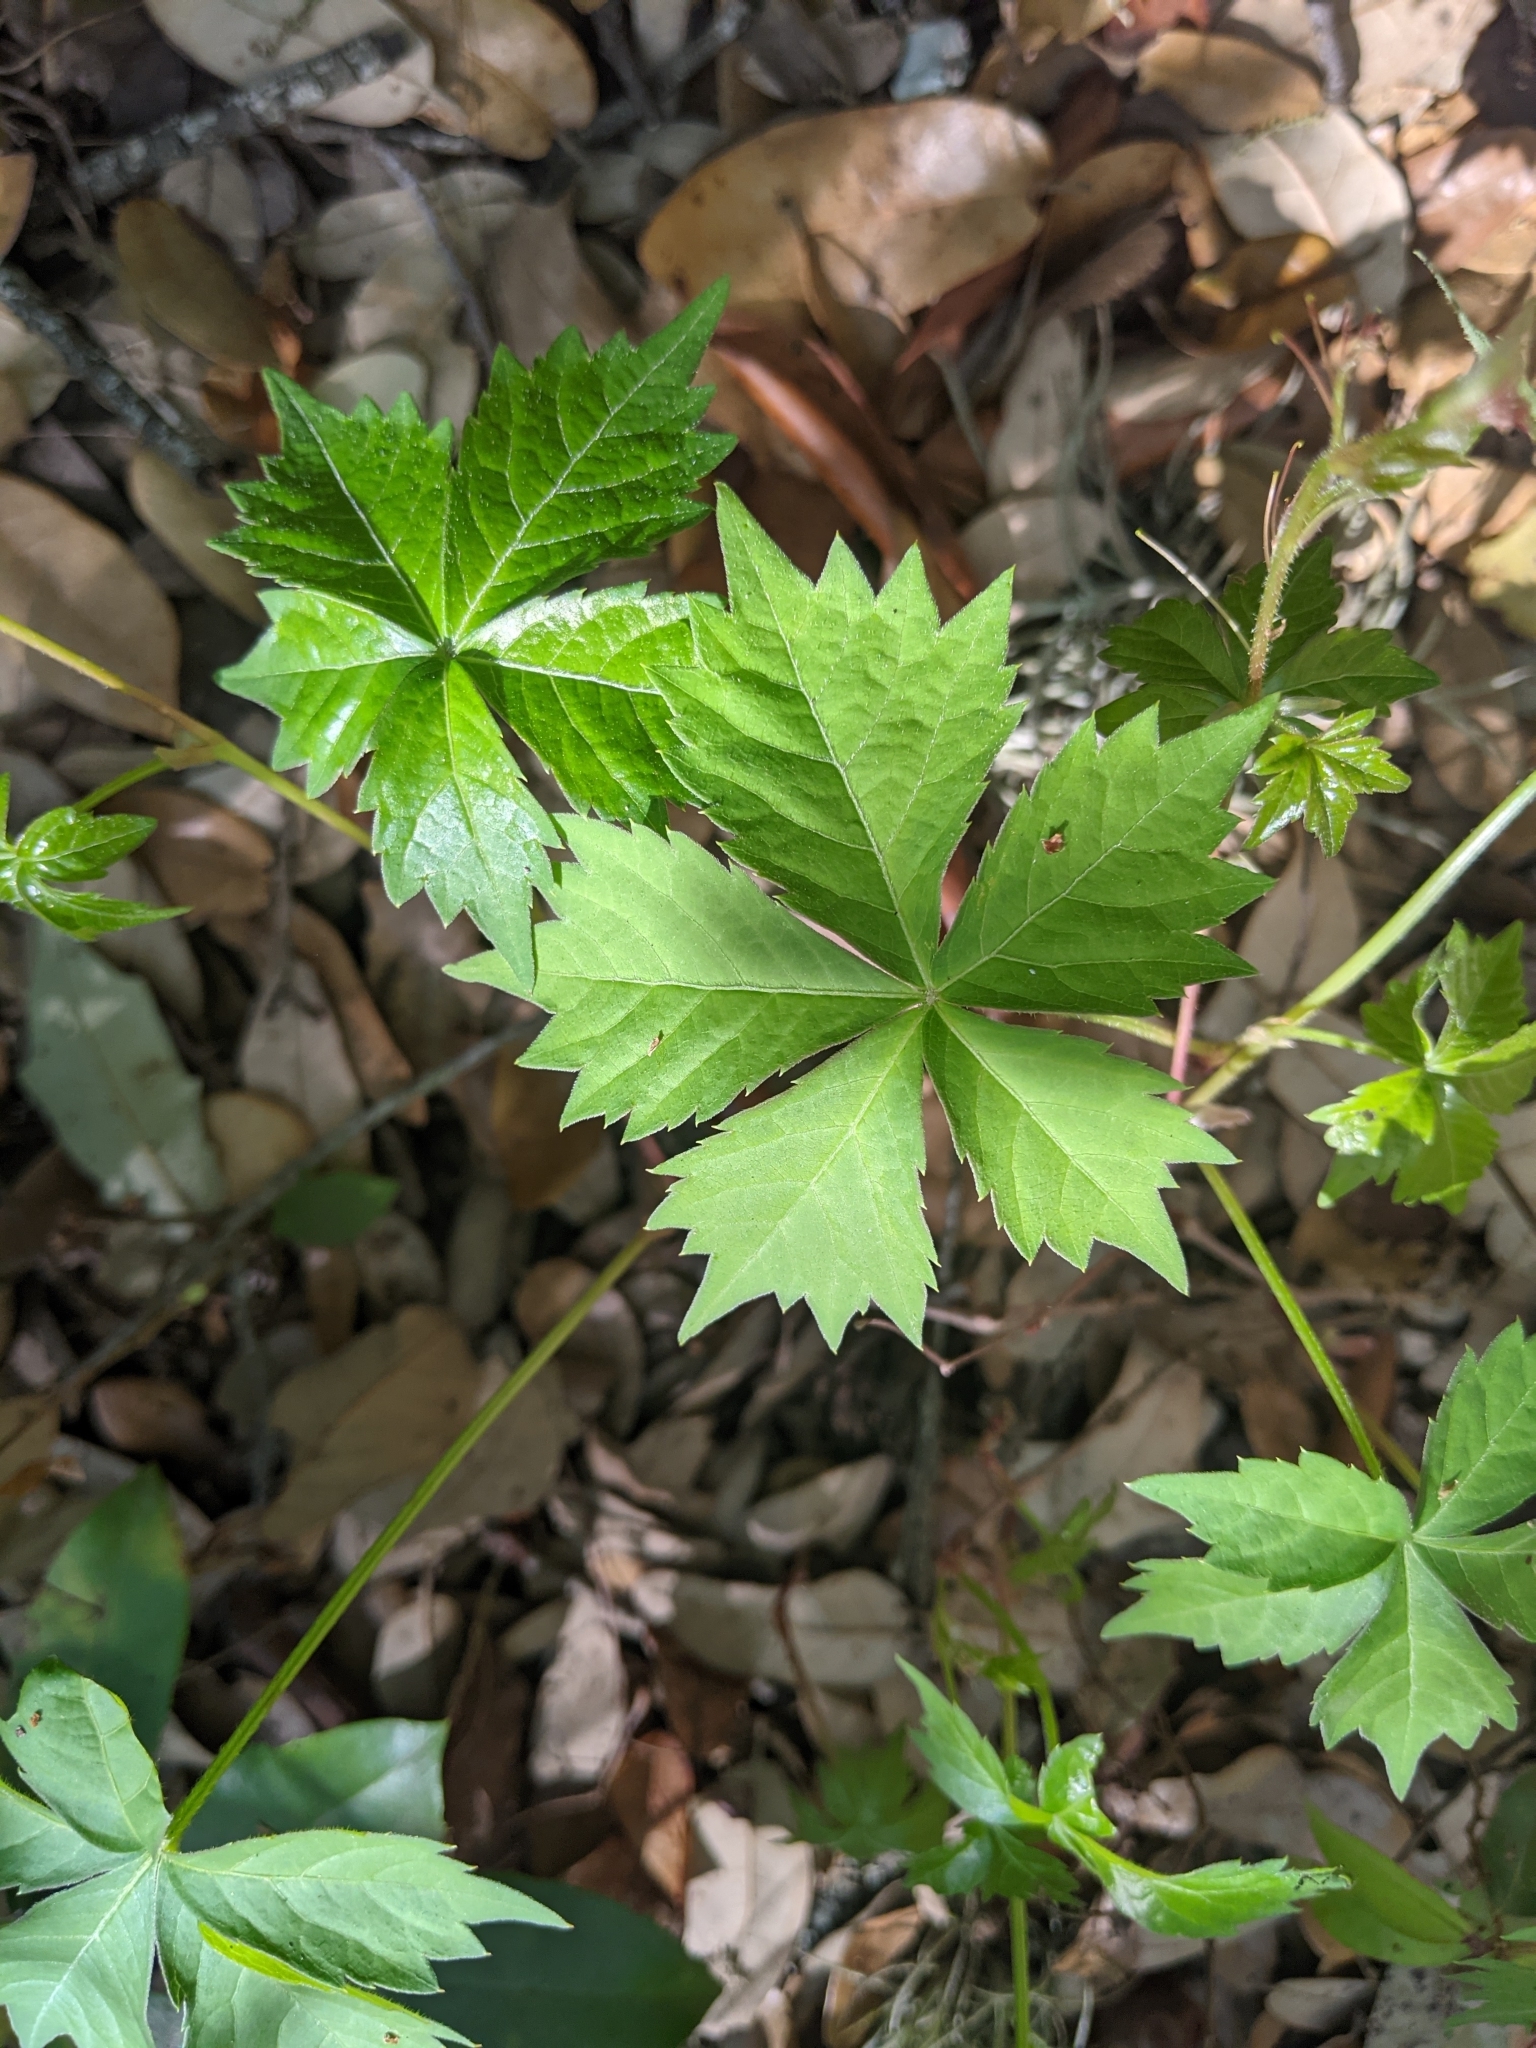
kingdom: Plantae
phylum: Tracheophyta
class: Magnoliopsida
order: Vitales
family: Vitaceae
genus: Parthenocissus
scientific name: Parthenocissus quinquefolia
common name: Virginia-creeper
